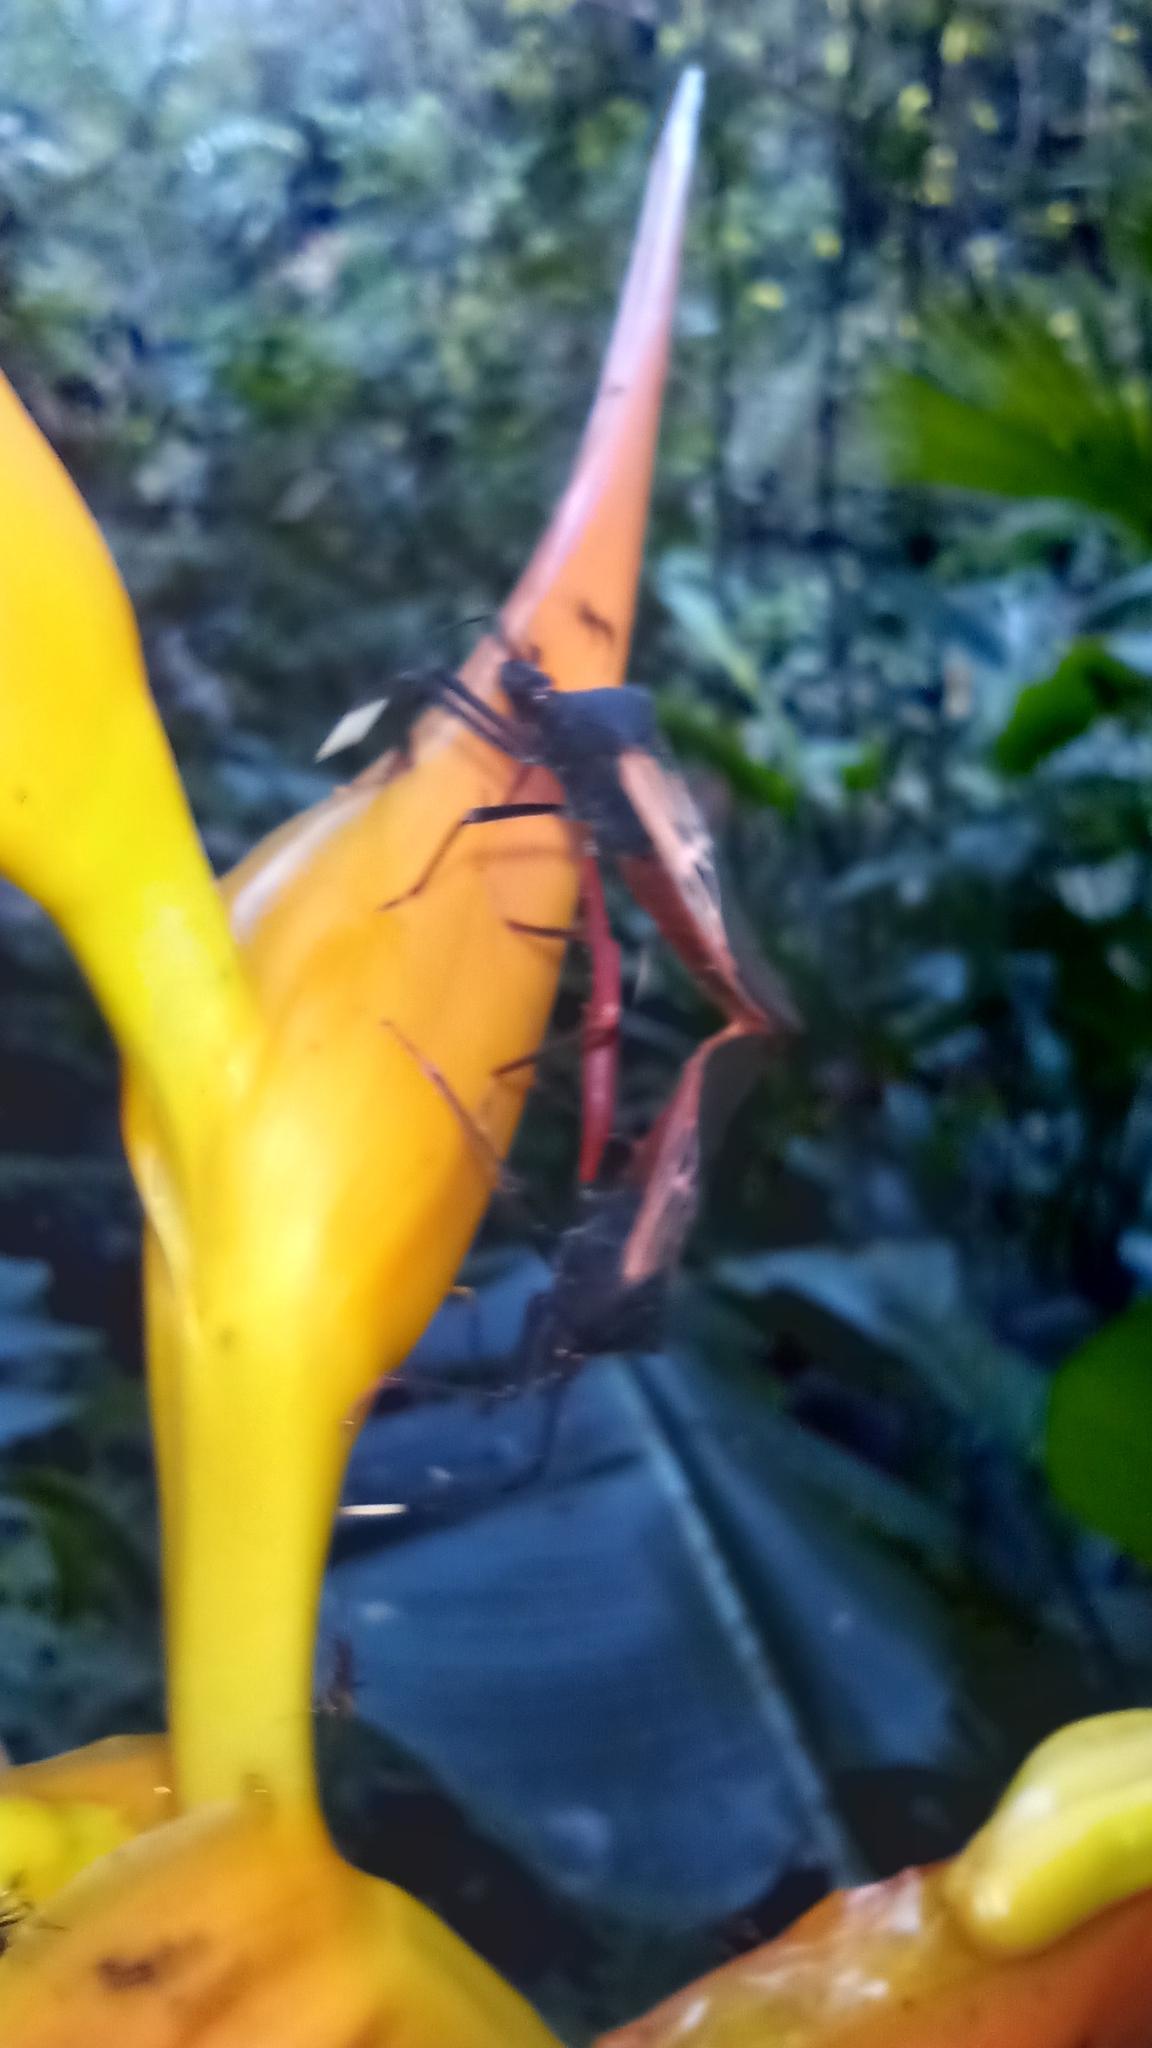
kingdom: Animalia
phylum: Arthropoda
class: Insecta
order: Hemiptera
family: Coreidae
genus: Leptoscelis
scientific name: Leptoscelis excellens
